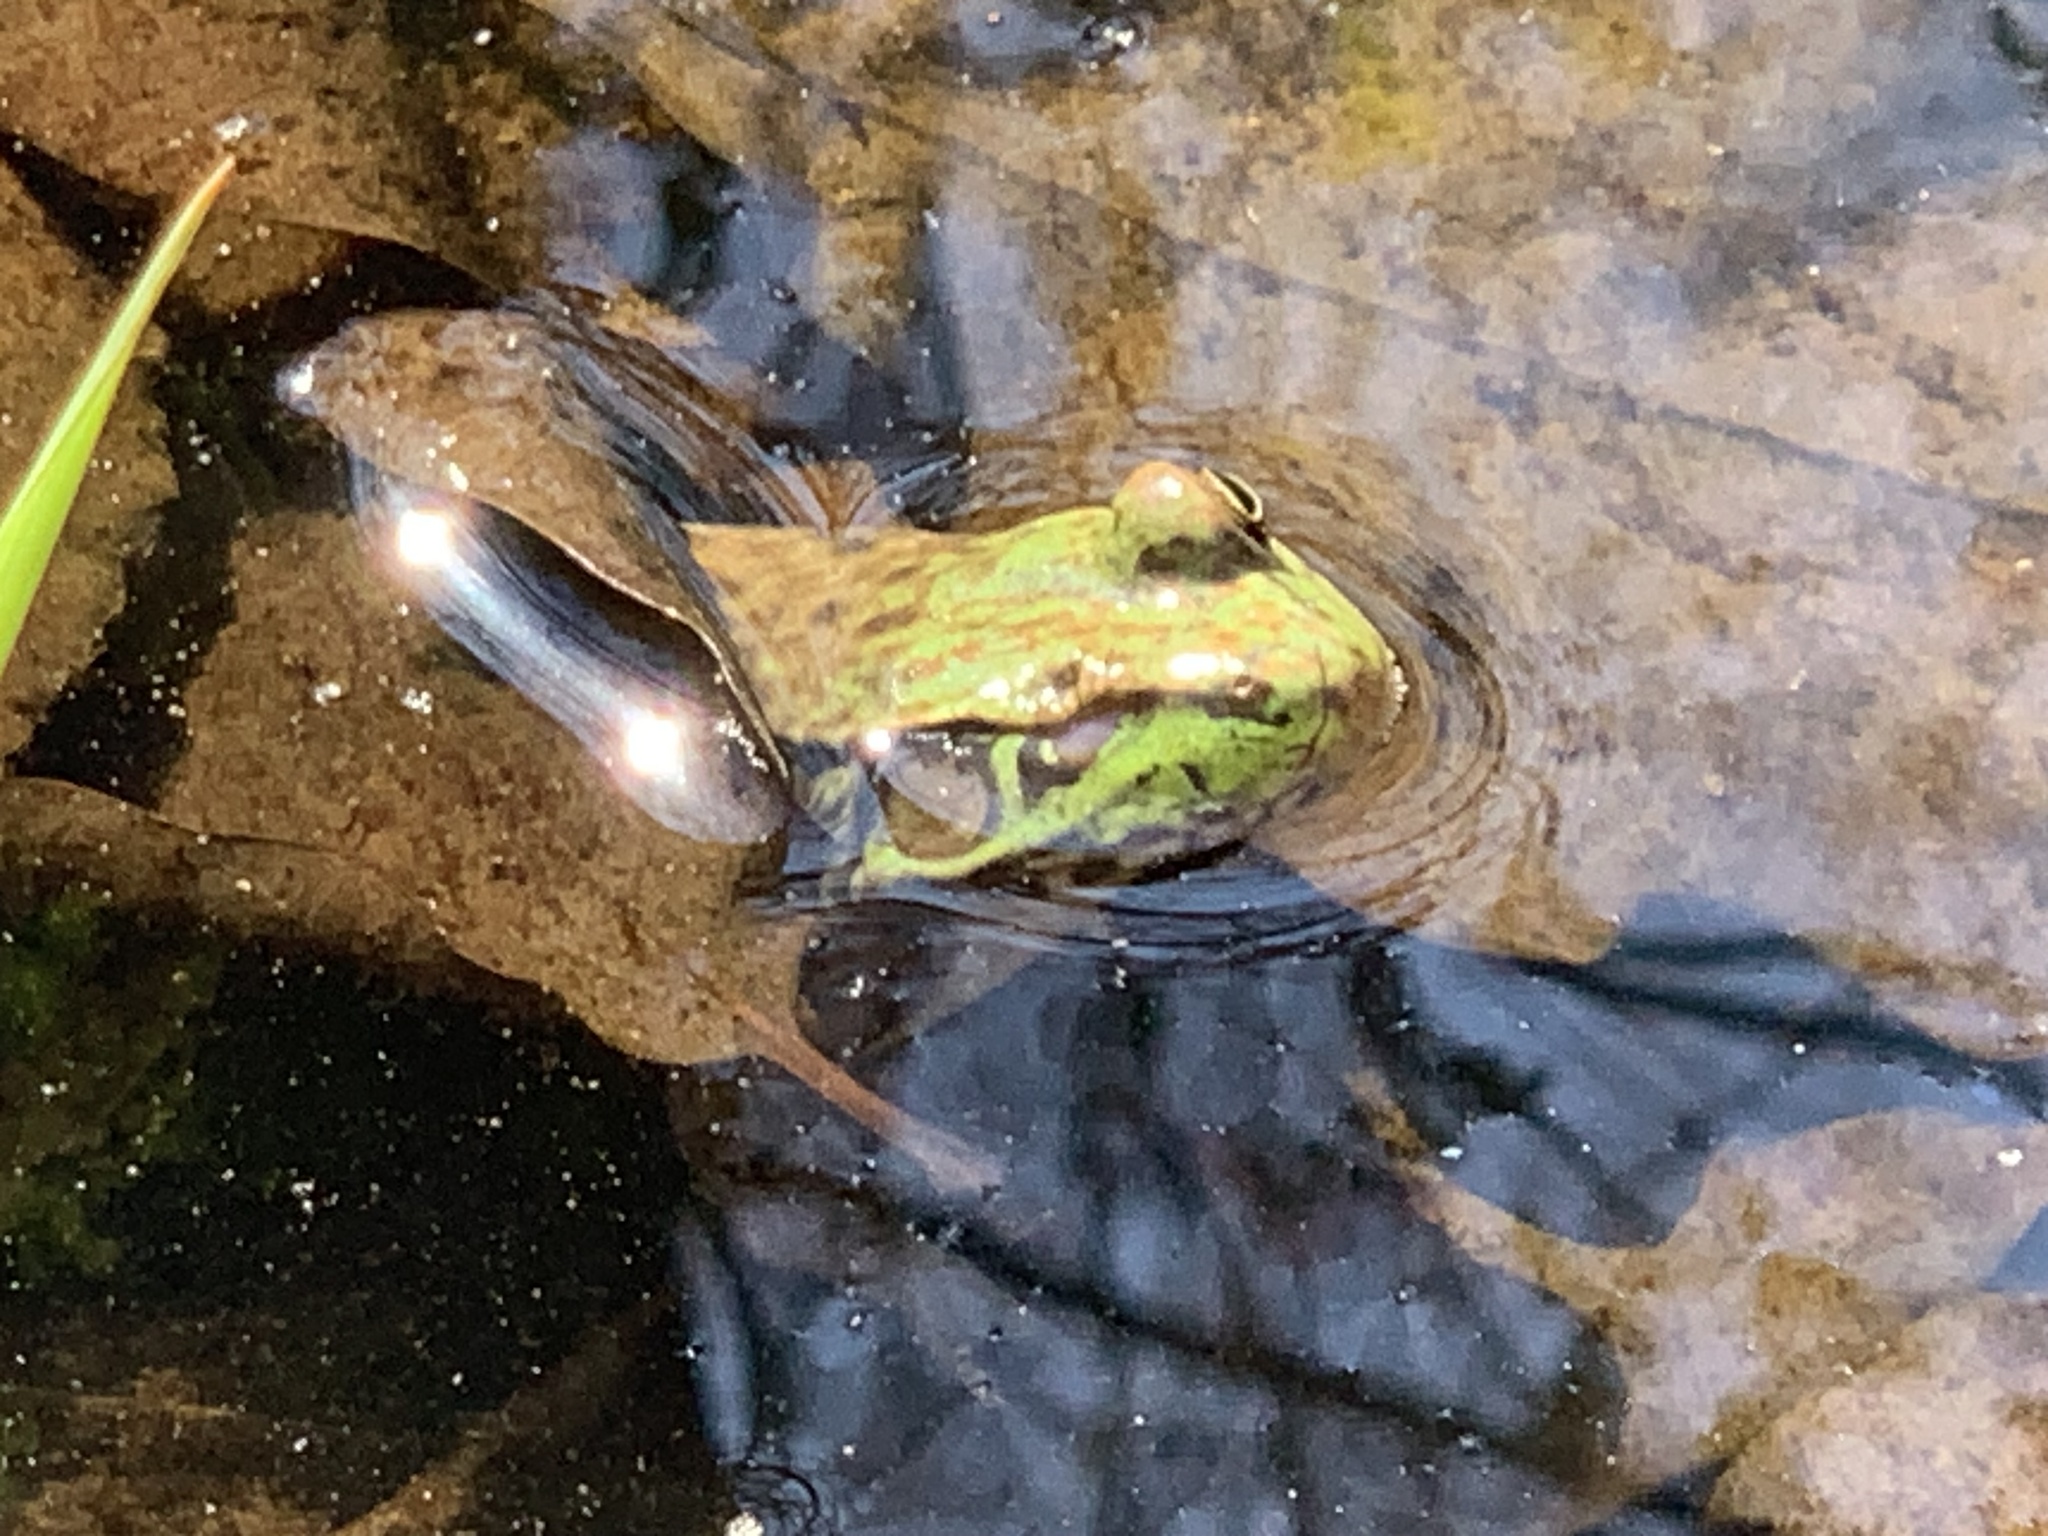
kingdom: Animalia
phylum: Chordata
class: Amphibia
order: Anura
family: Ranidae
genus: Lithobates
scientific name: Lithobates clamitans
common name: Green frog
